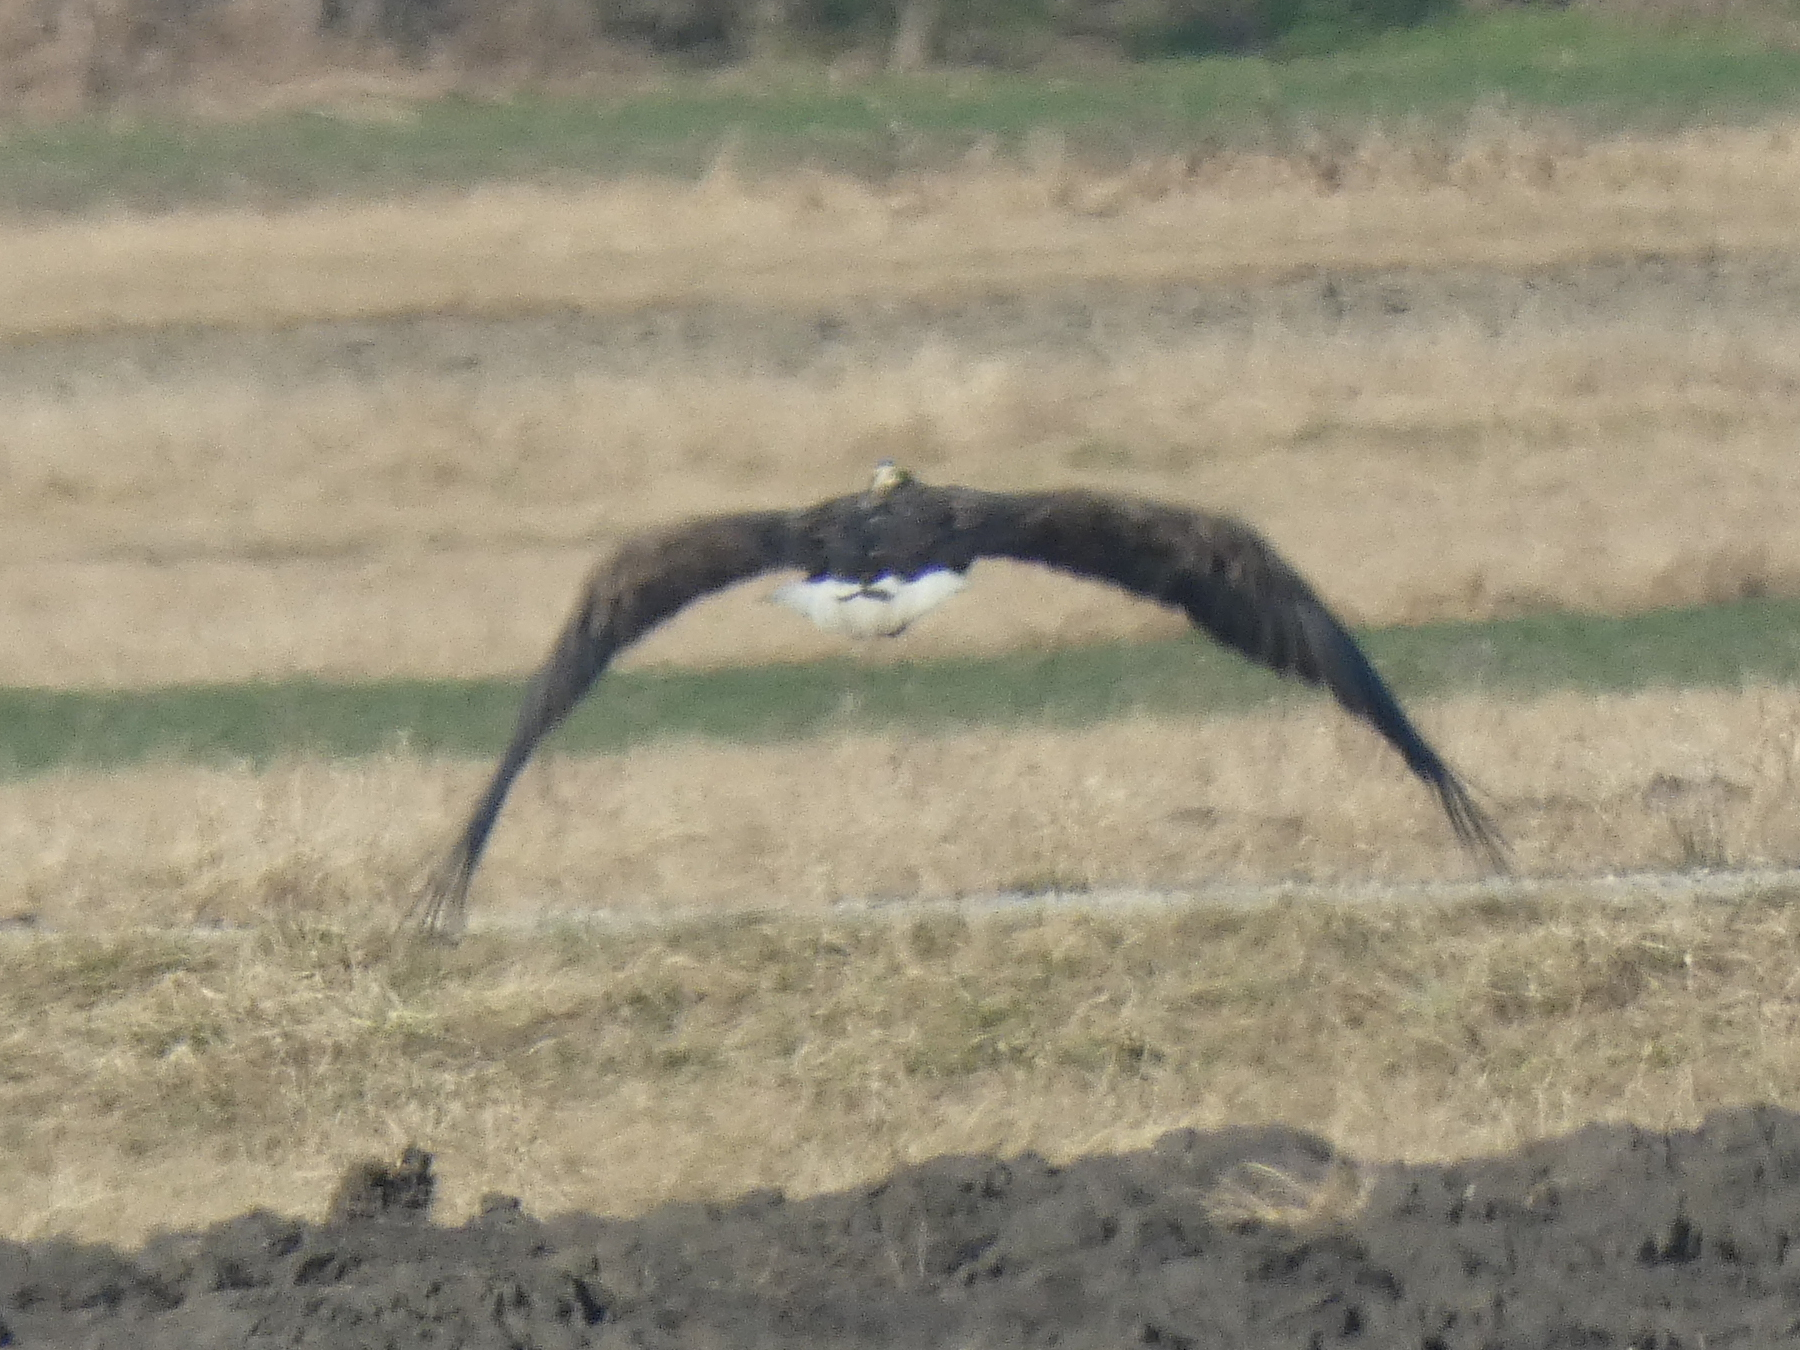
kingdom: Animalia
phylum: Chordata
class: Aves
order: Accipitriformes
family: Accipitridae
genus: Haliaeetus
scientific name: Haliaeetus albicilla
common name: White-tailed eagle
